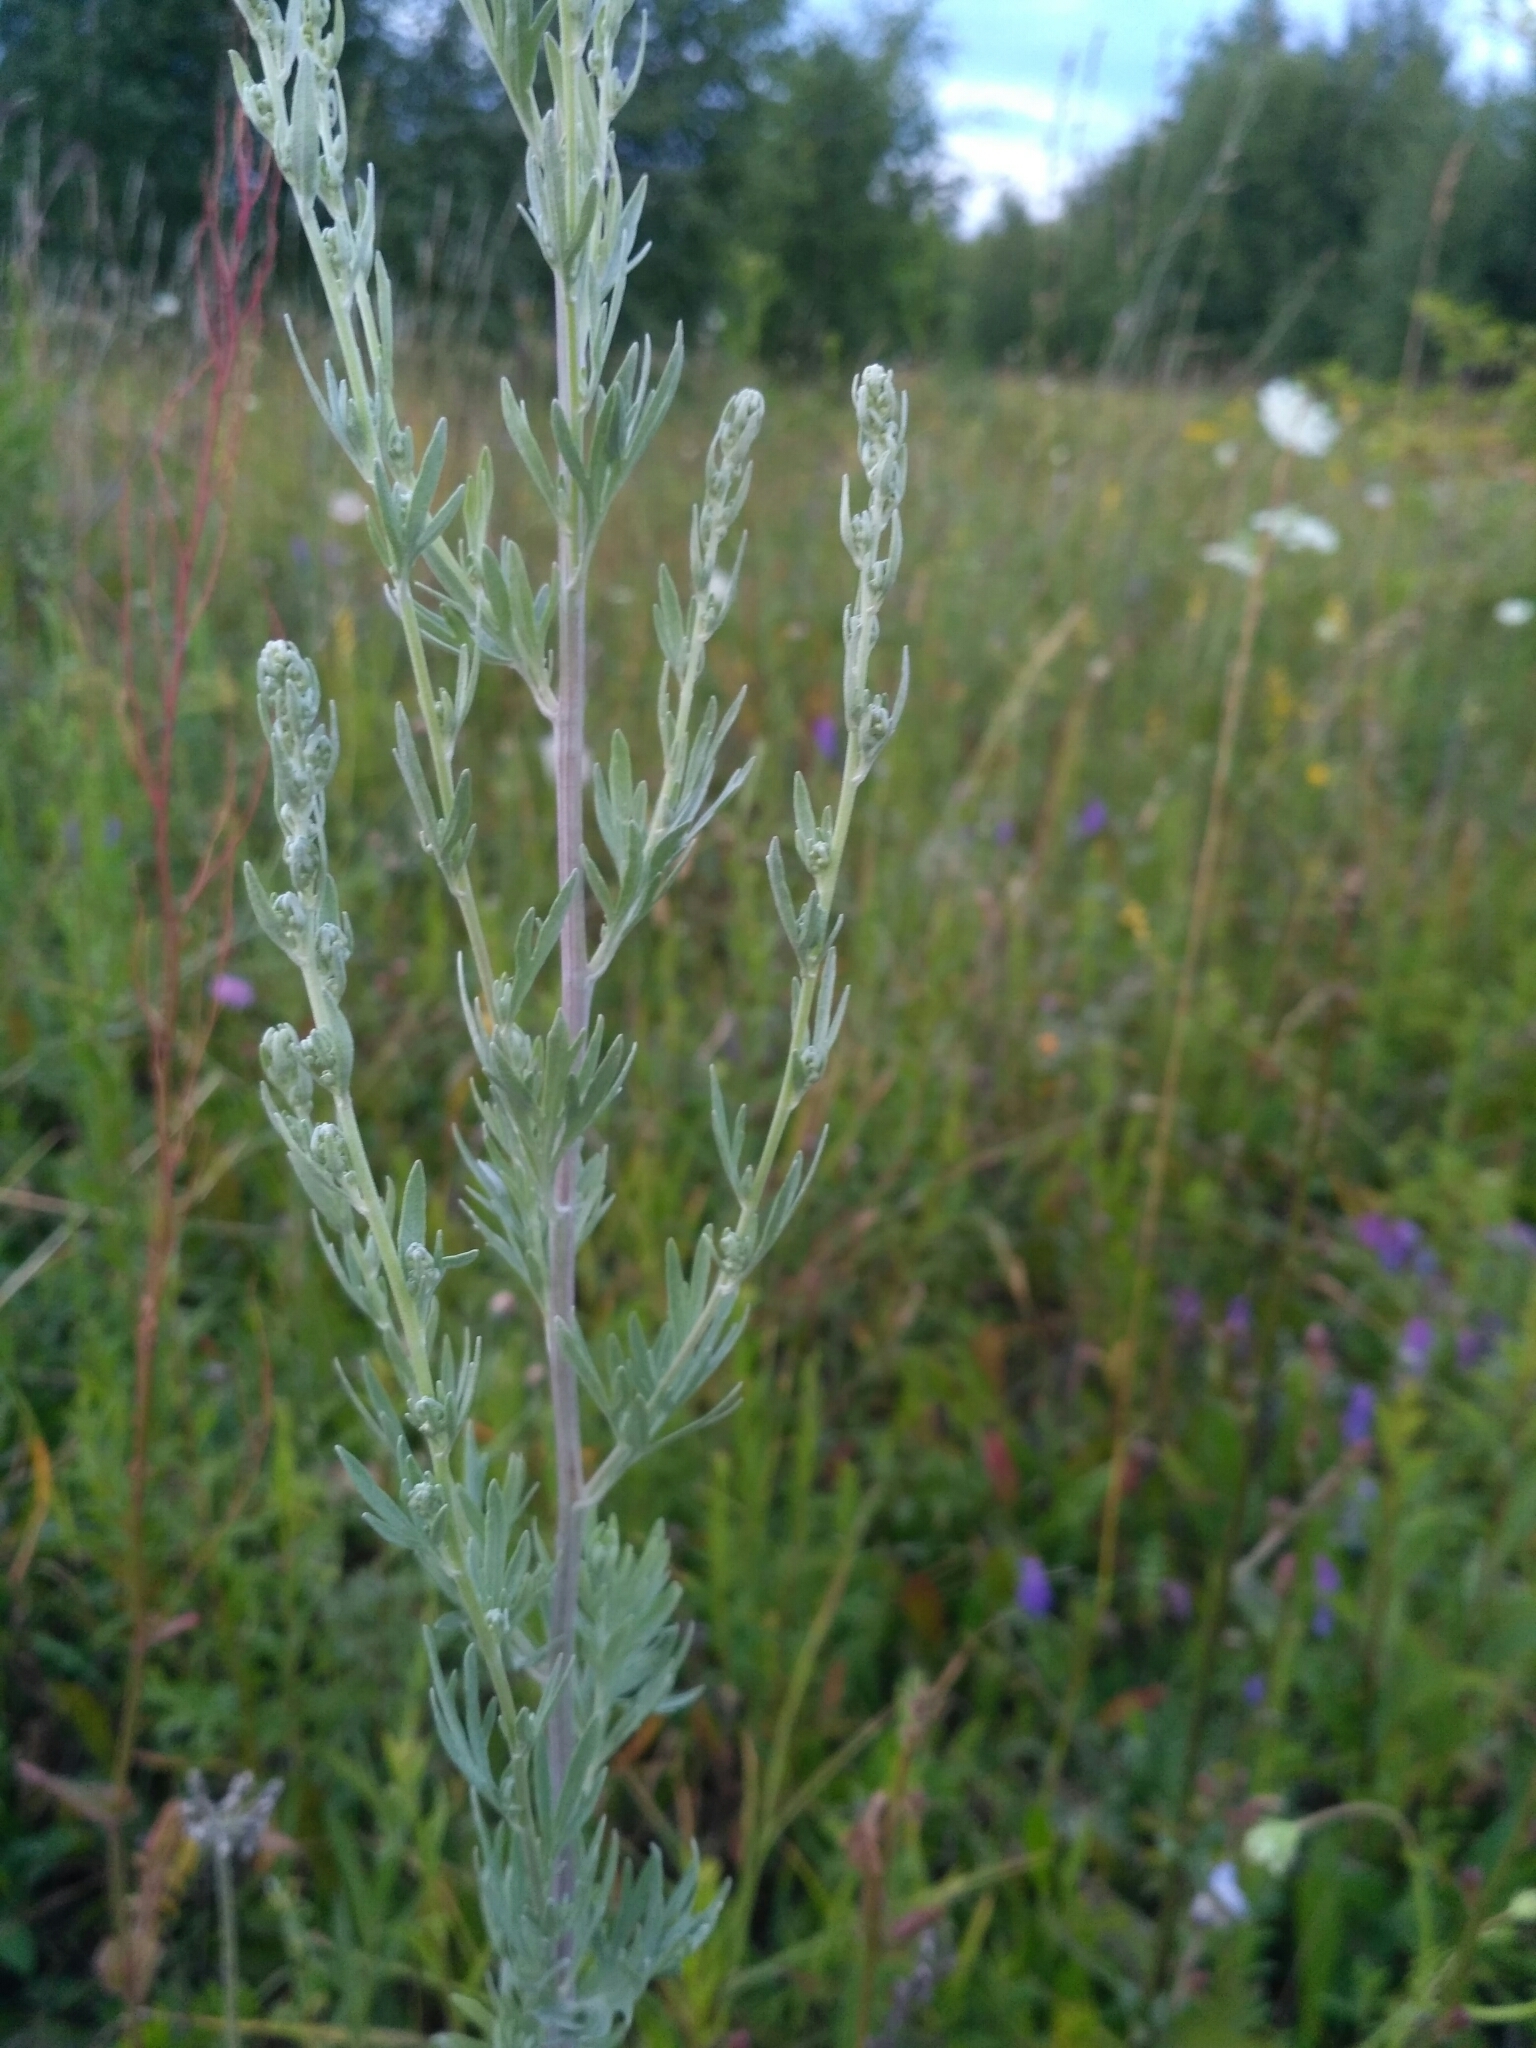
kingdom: Plantae
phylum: Tracheophyta
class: Magnoliopsida
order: Asterales
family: Asteraceae
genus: Artemisia
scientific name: Artemisia absinthium
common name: Wormwood
